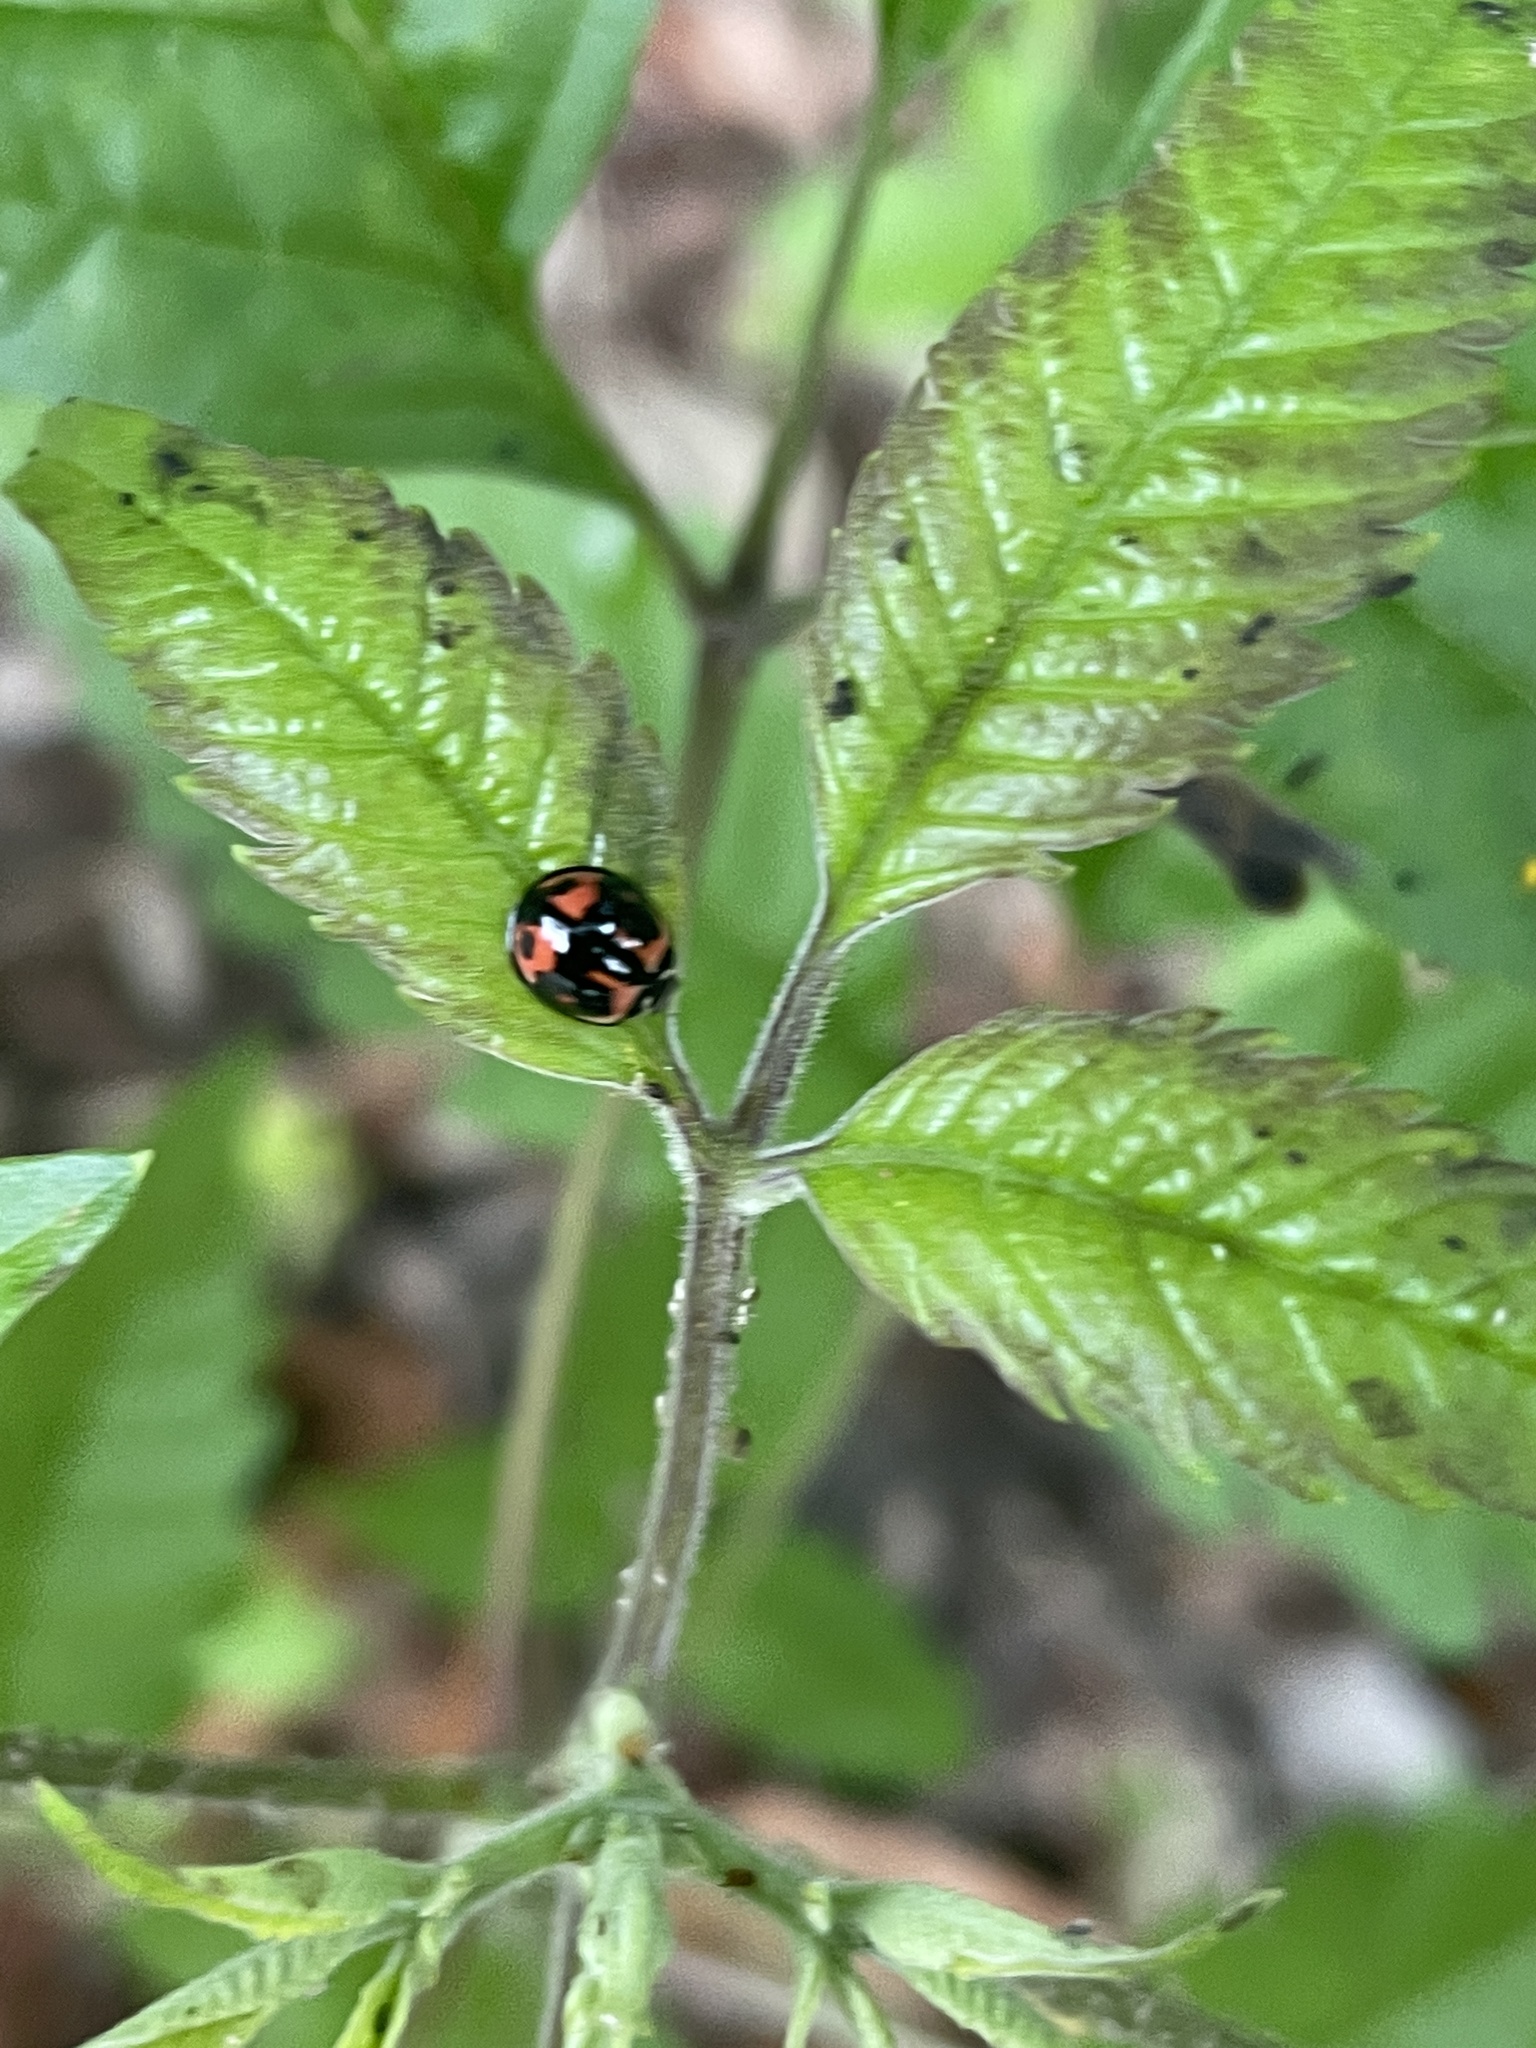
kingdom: Animalia
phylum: Arthropoda
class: Insecta
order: Coleoptera
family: Coccinellidae
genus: Cheilomenes
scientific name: Cheilomenes sexmaculata
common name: Ladybird beetle
